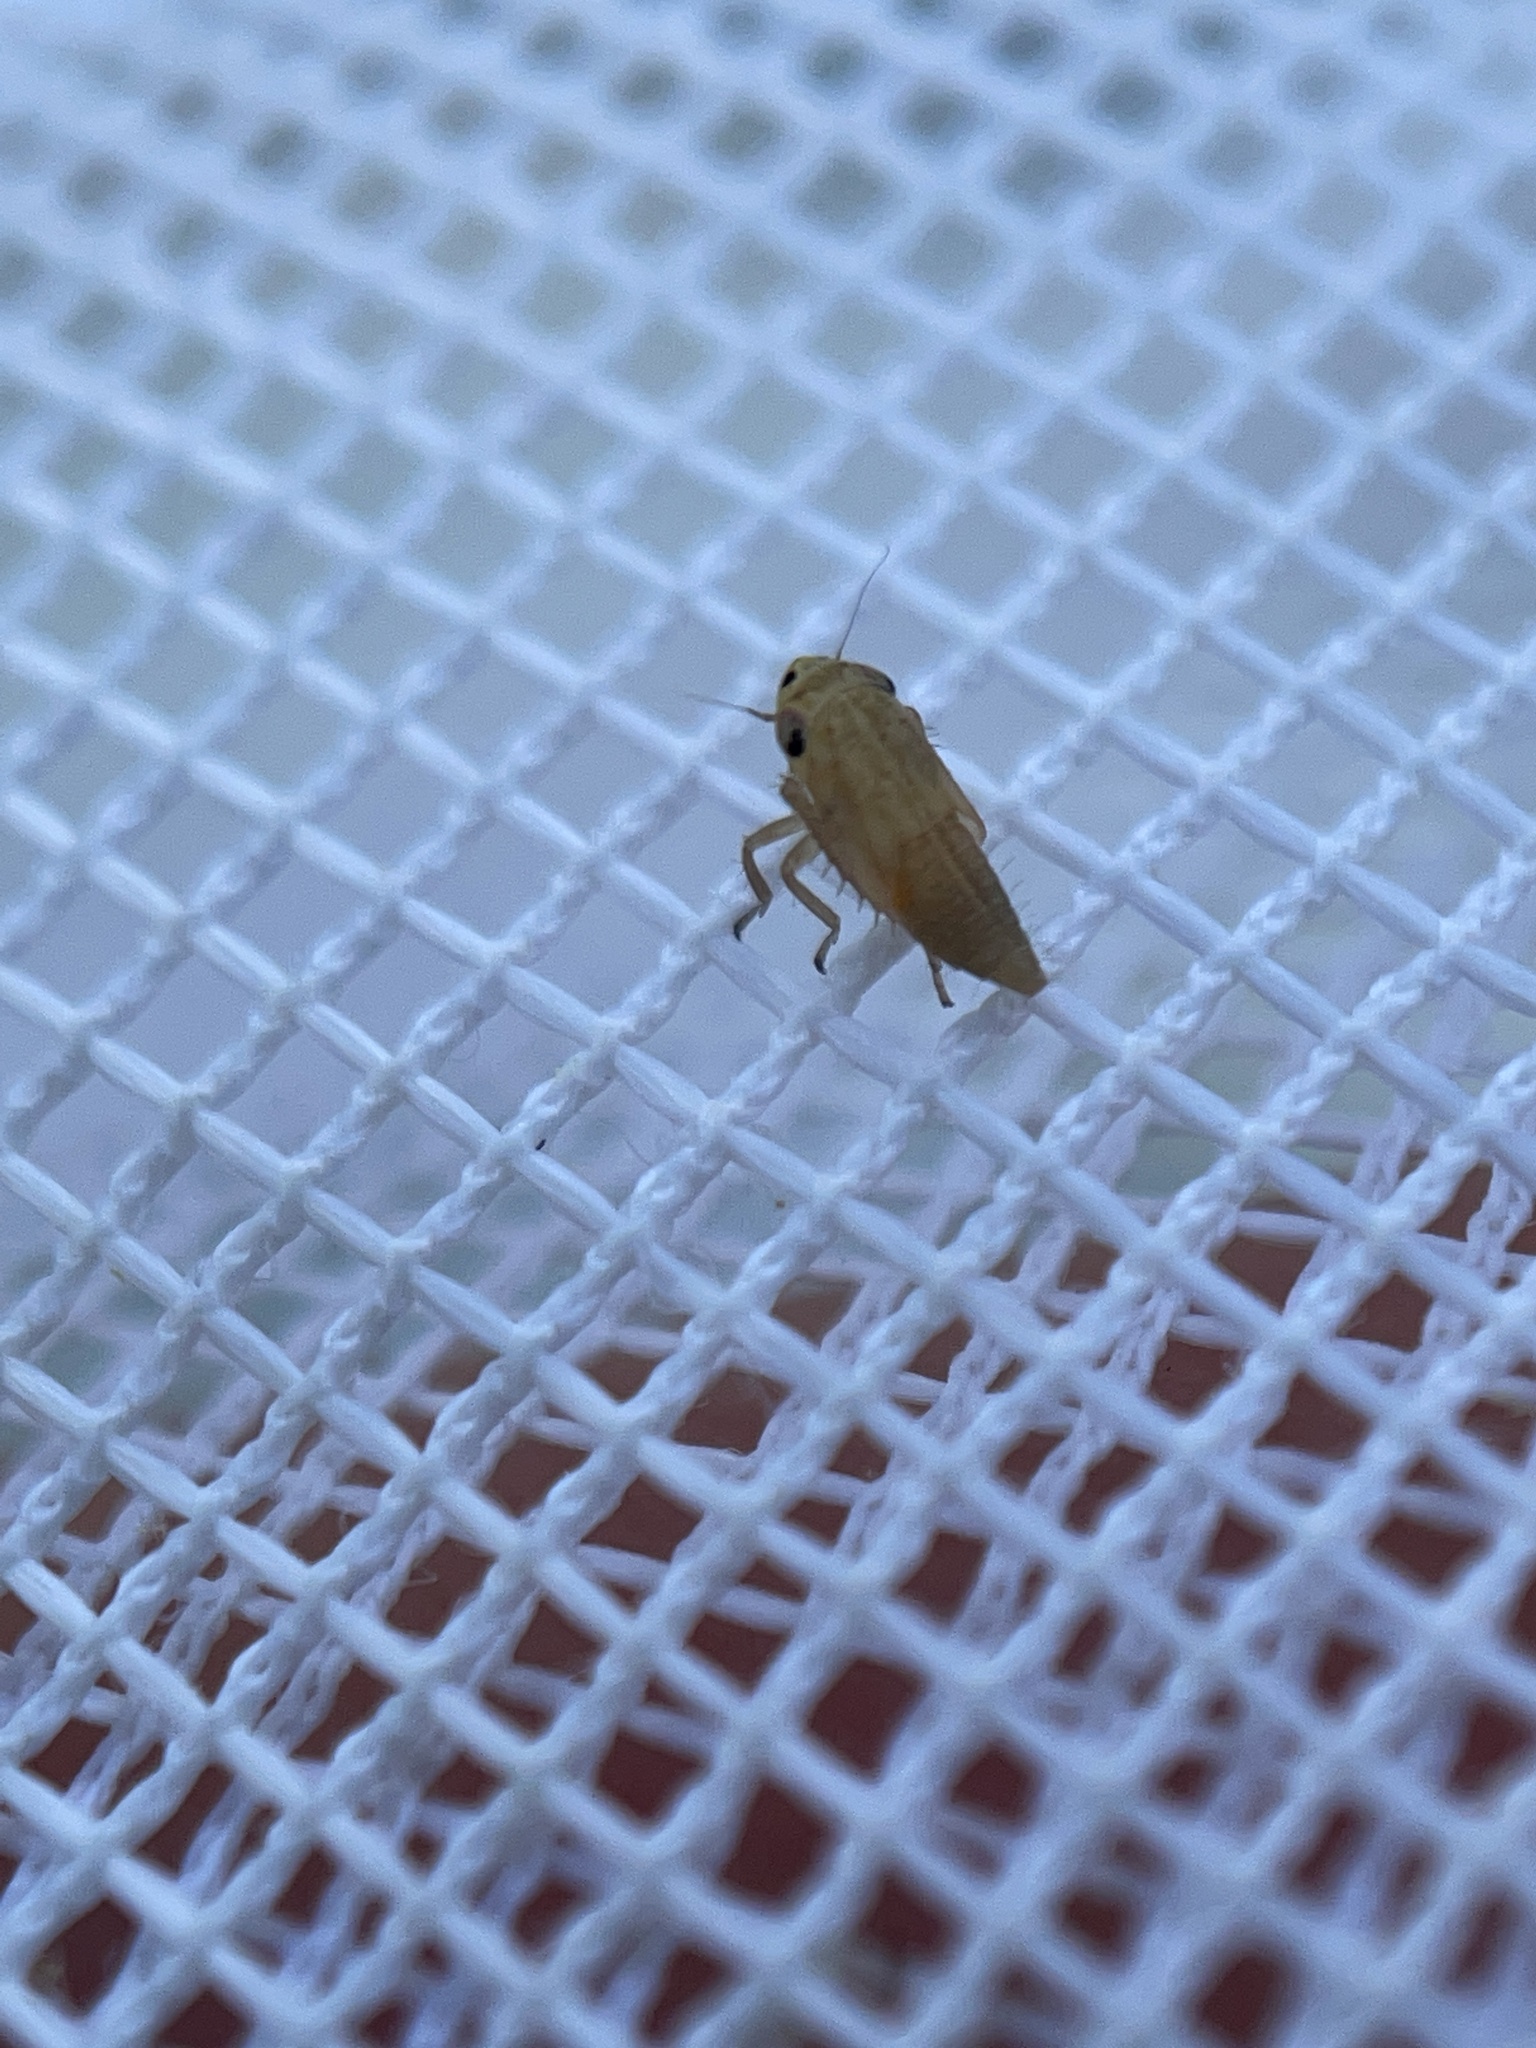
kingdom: Animalia
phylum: Arthropoda
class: Insecta
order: Hemiptera
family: Cicadellidae
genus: Exitianus
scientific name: Exitianus exitiosus
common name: Gray lawn leafhopper
